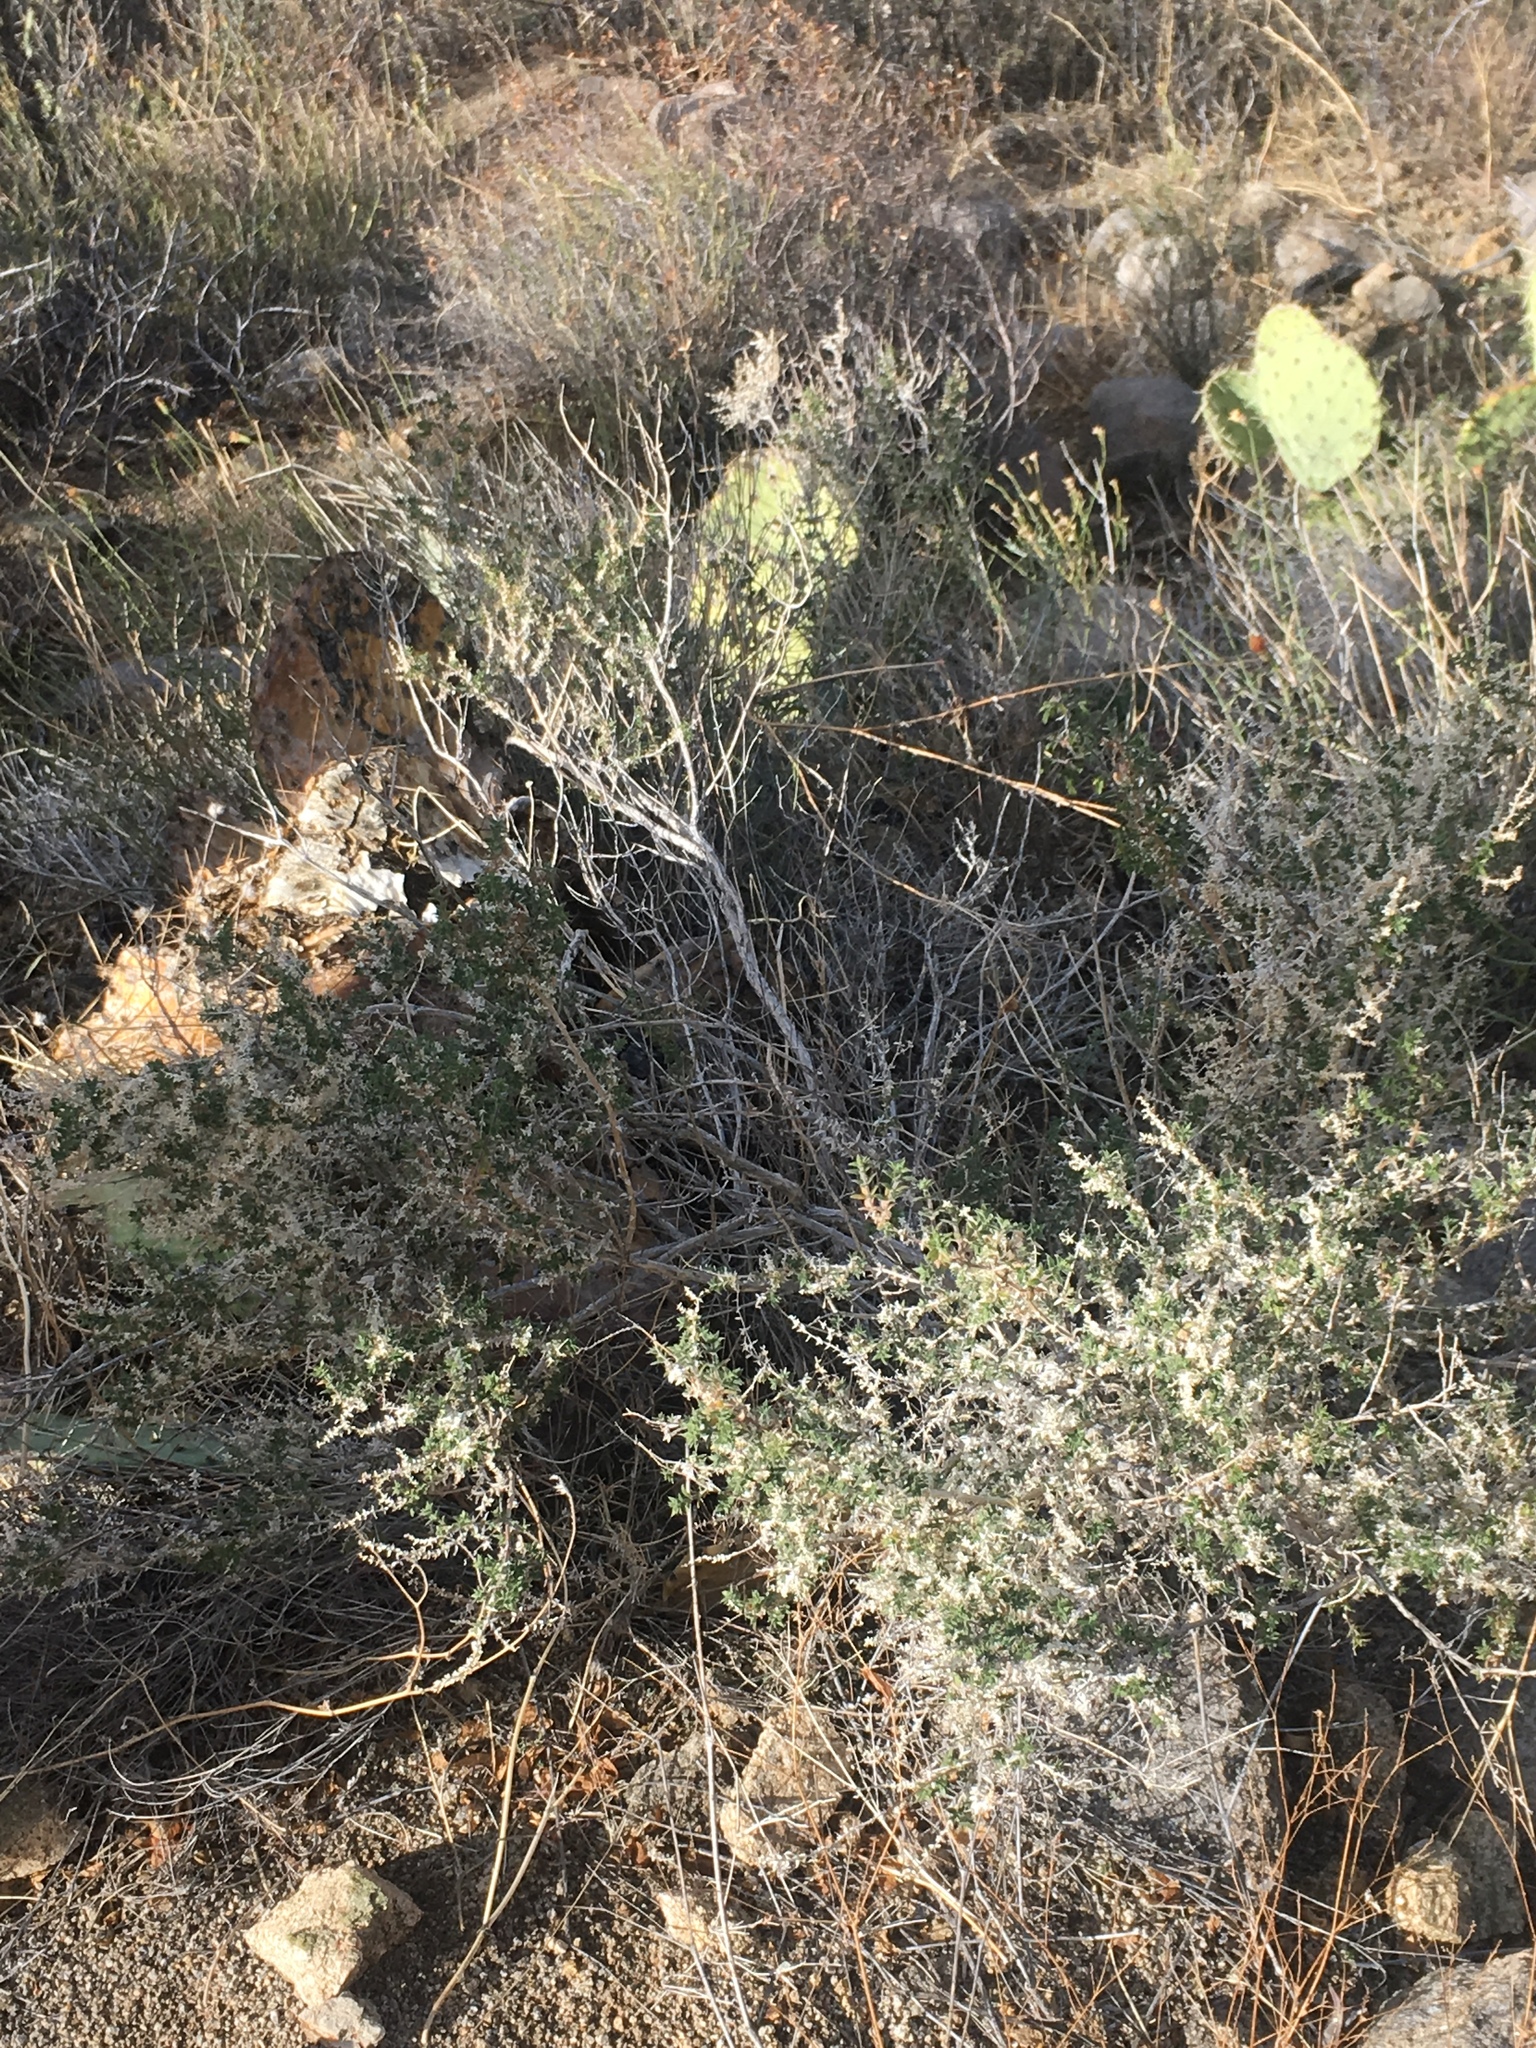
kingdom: Plantae
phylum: Tracheophyta
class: Magnoliopsida
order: Gentianales
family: Rubiaceae
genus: Galium
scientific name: Galium stellatum
